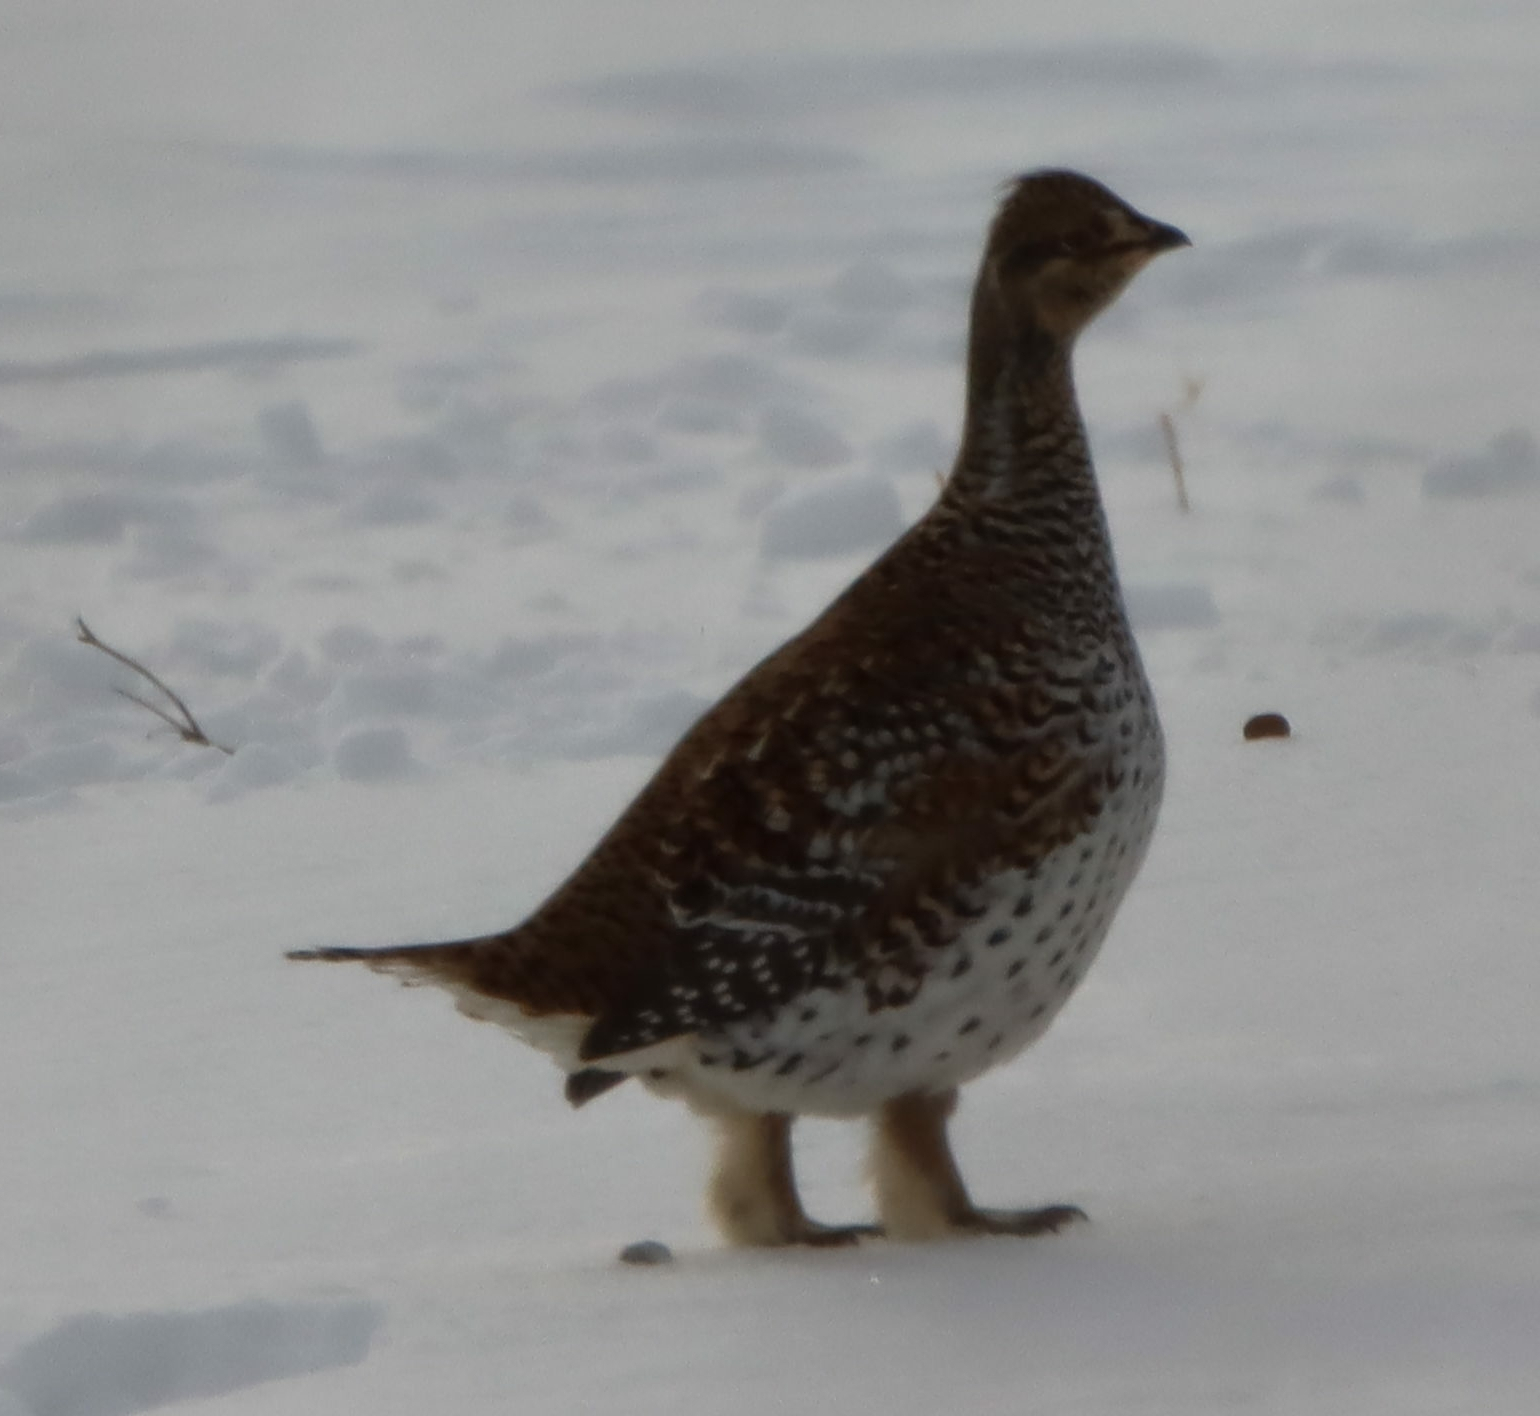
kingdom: Animalia
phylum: Chordata
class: Aves
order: Galliformes
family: Phasianidae
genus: Tympanuchus
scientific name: Tympanuchus phasianellus
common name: Sharp-tailed grouse
